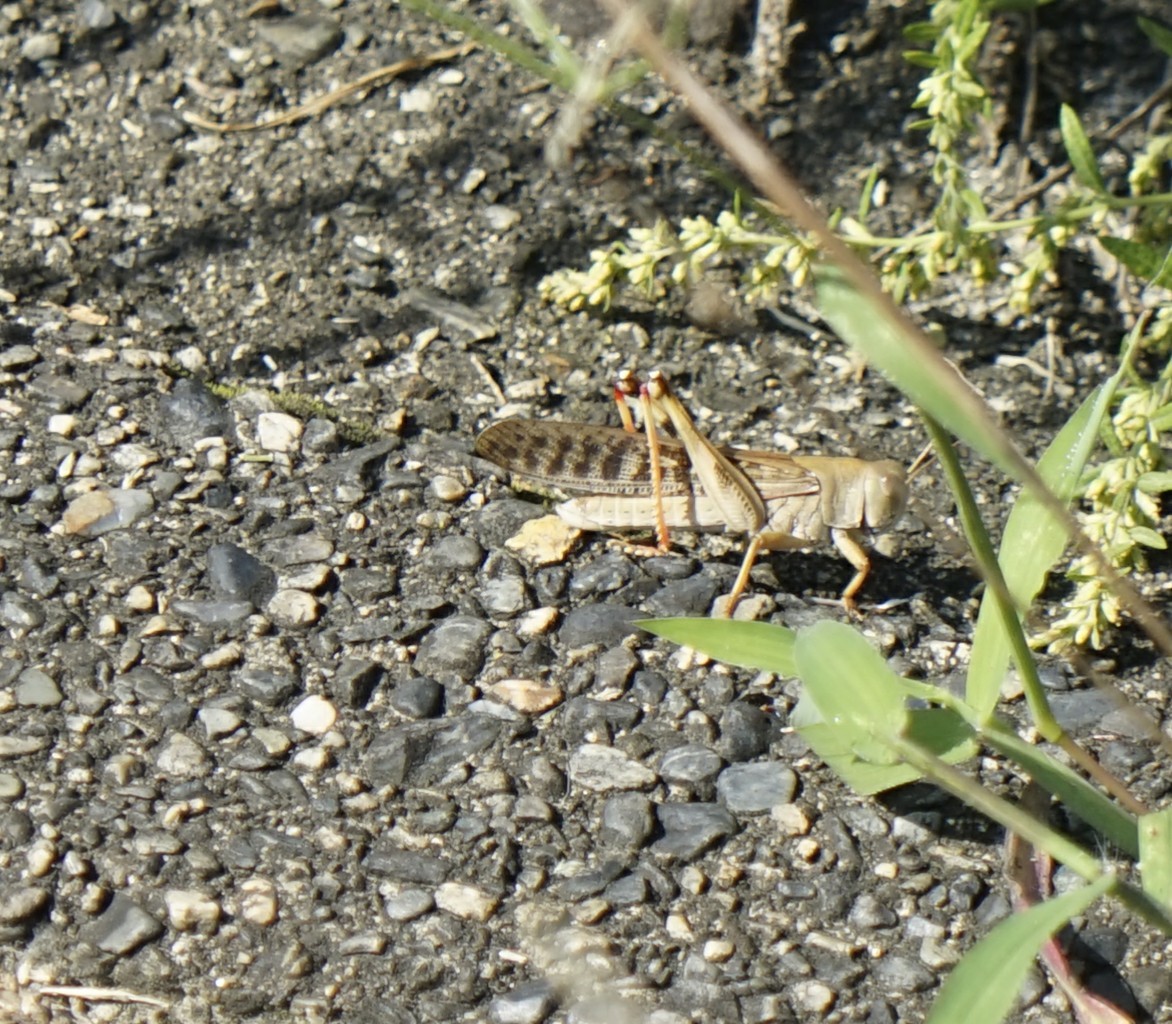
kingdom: Animalia
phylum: Arthropoda
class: Insecta
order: Orthoptera
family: Acrididae
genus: Locusta
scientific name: Locusta migratoria
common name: Migratory locust
